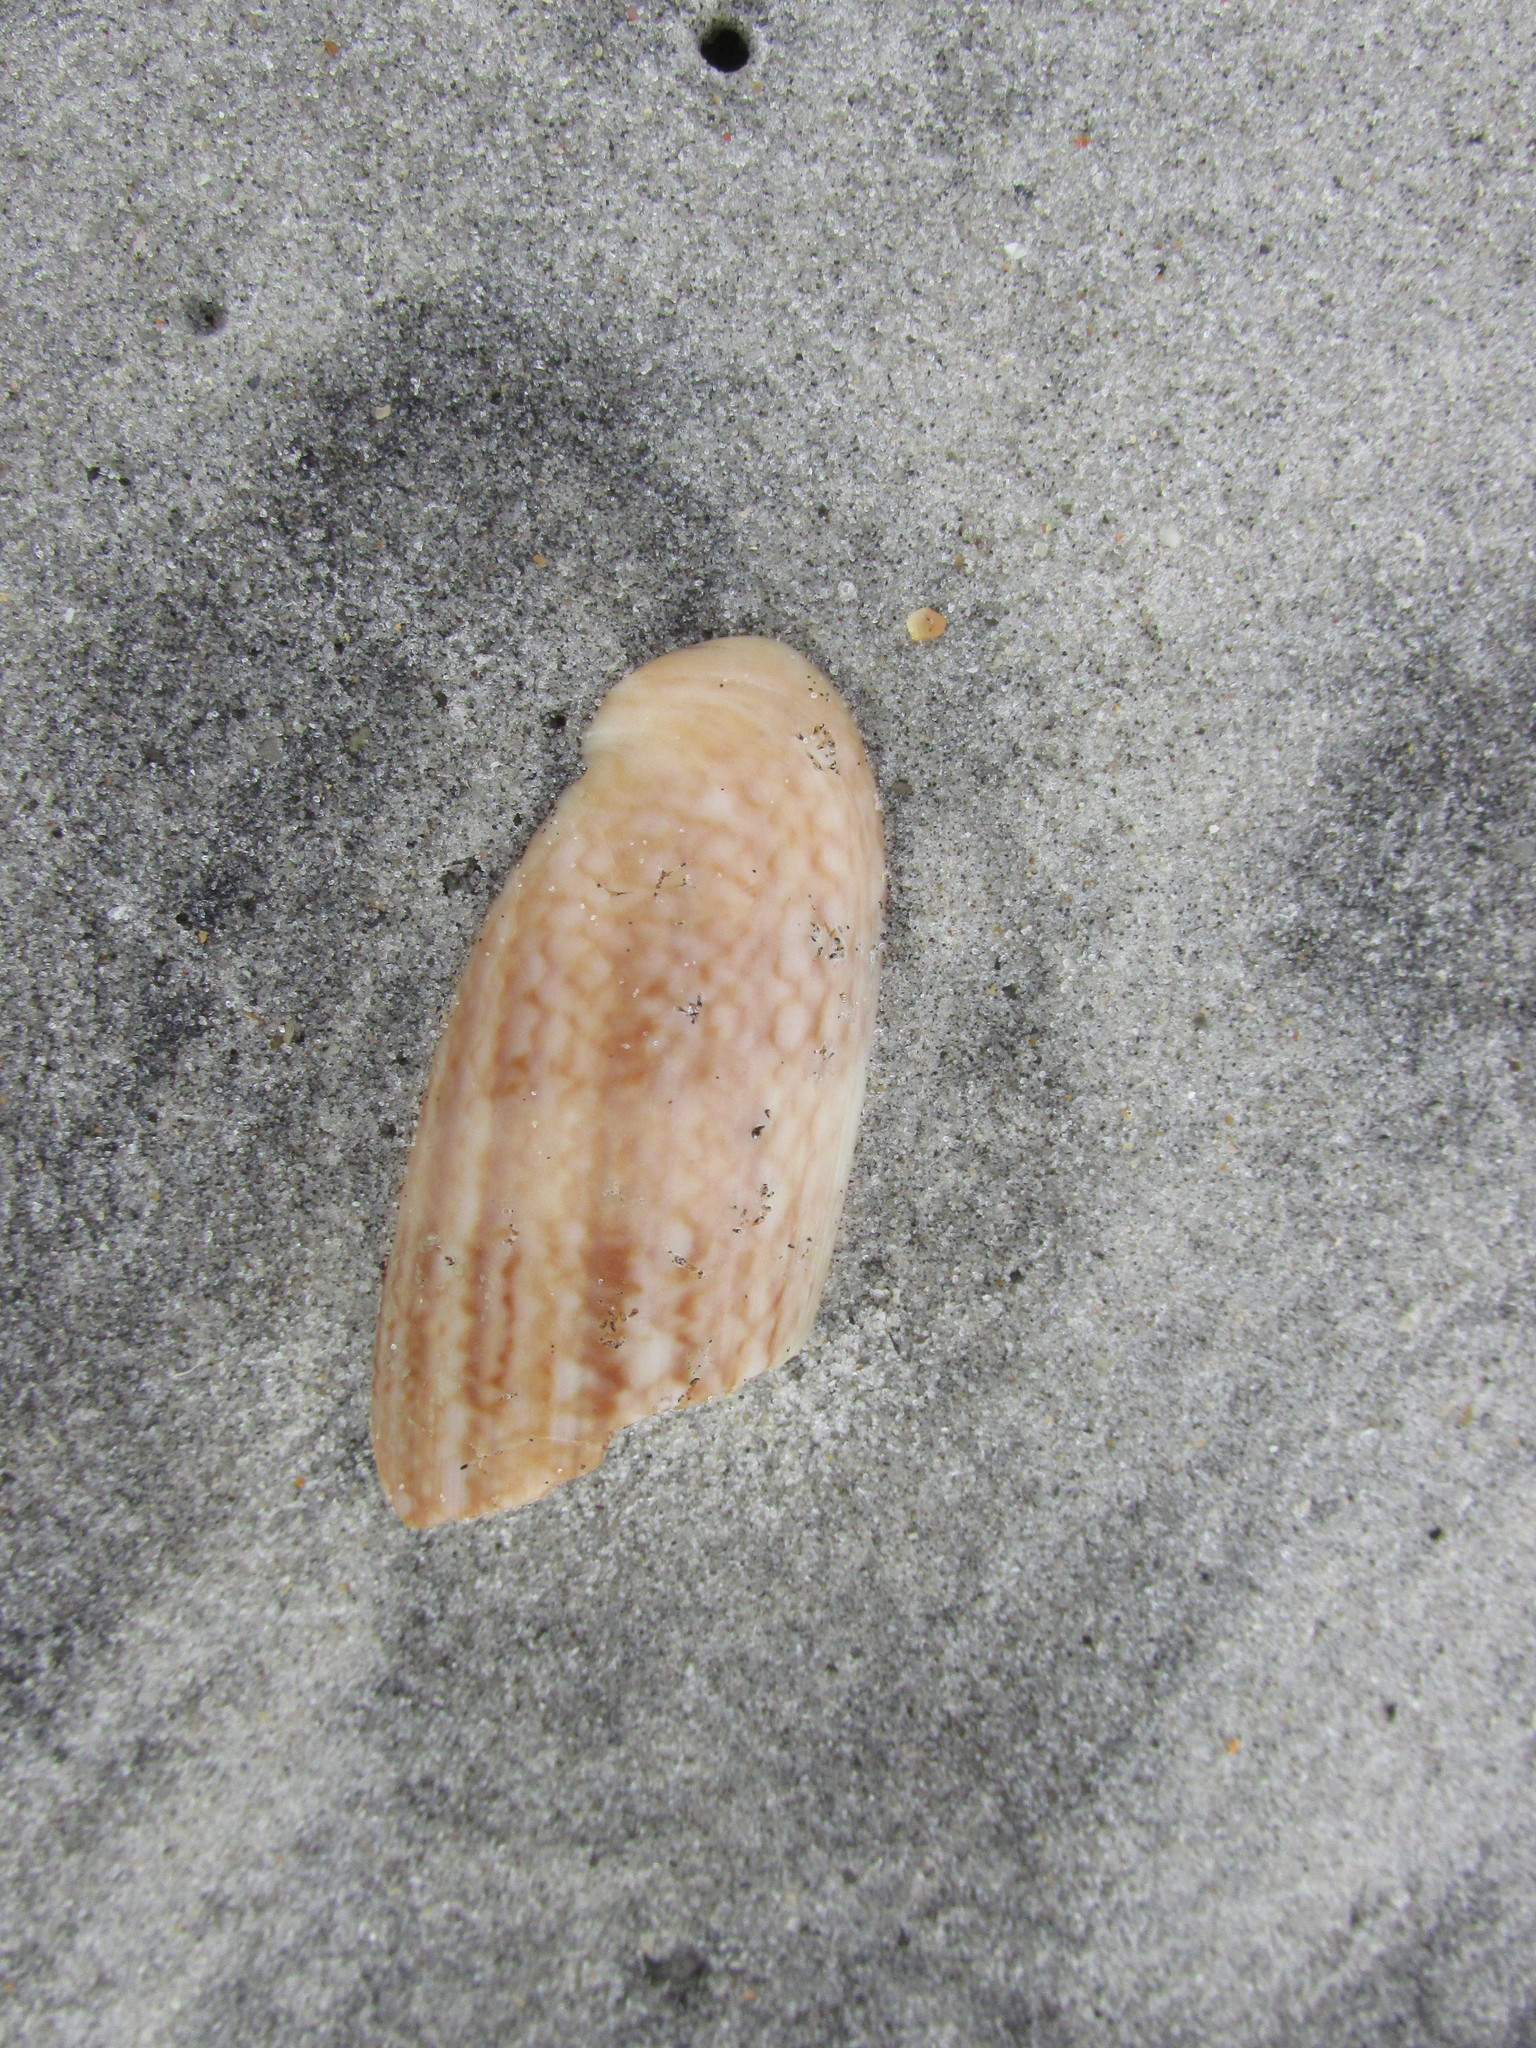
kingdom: Animalia
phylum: Mollusca
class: Gastropoda
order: Neogastropoda
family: Olividae
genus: Oliva
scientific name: Oliva sayana
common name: Lettered olive
